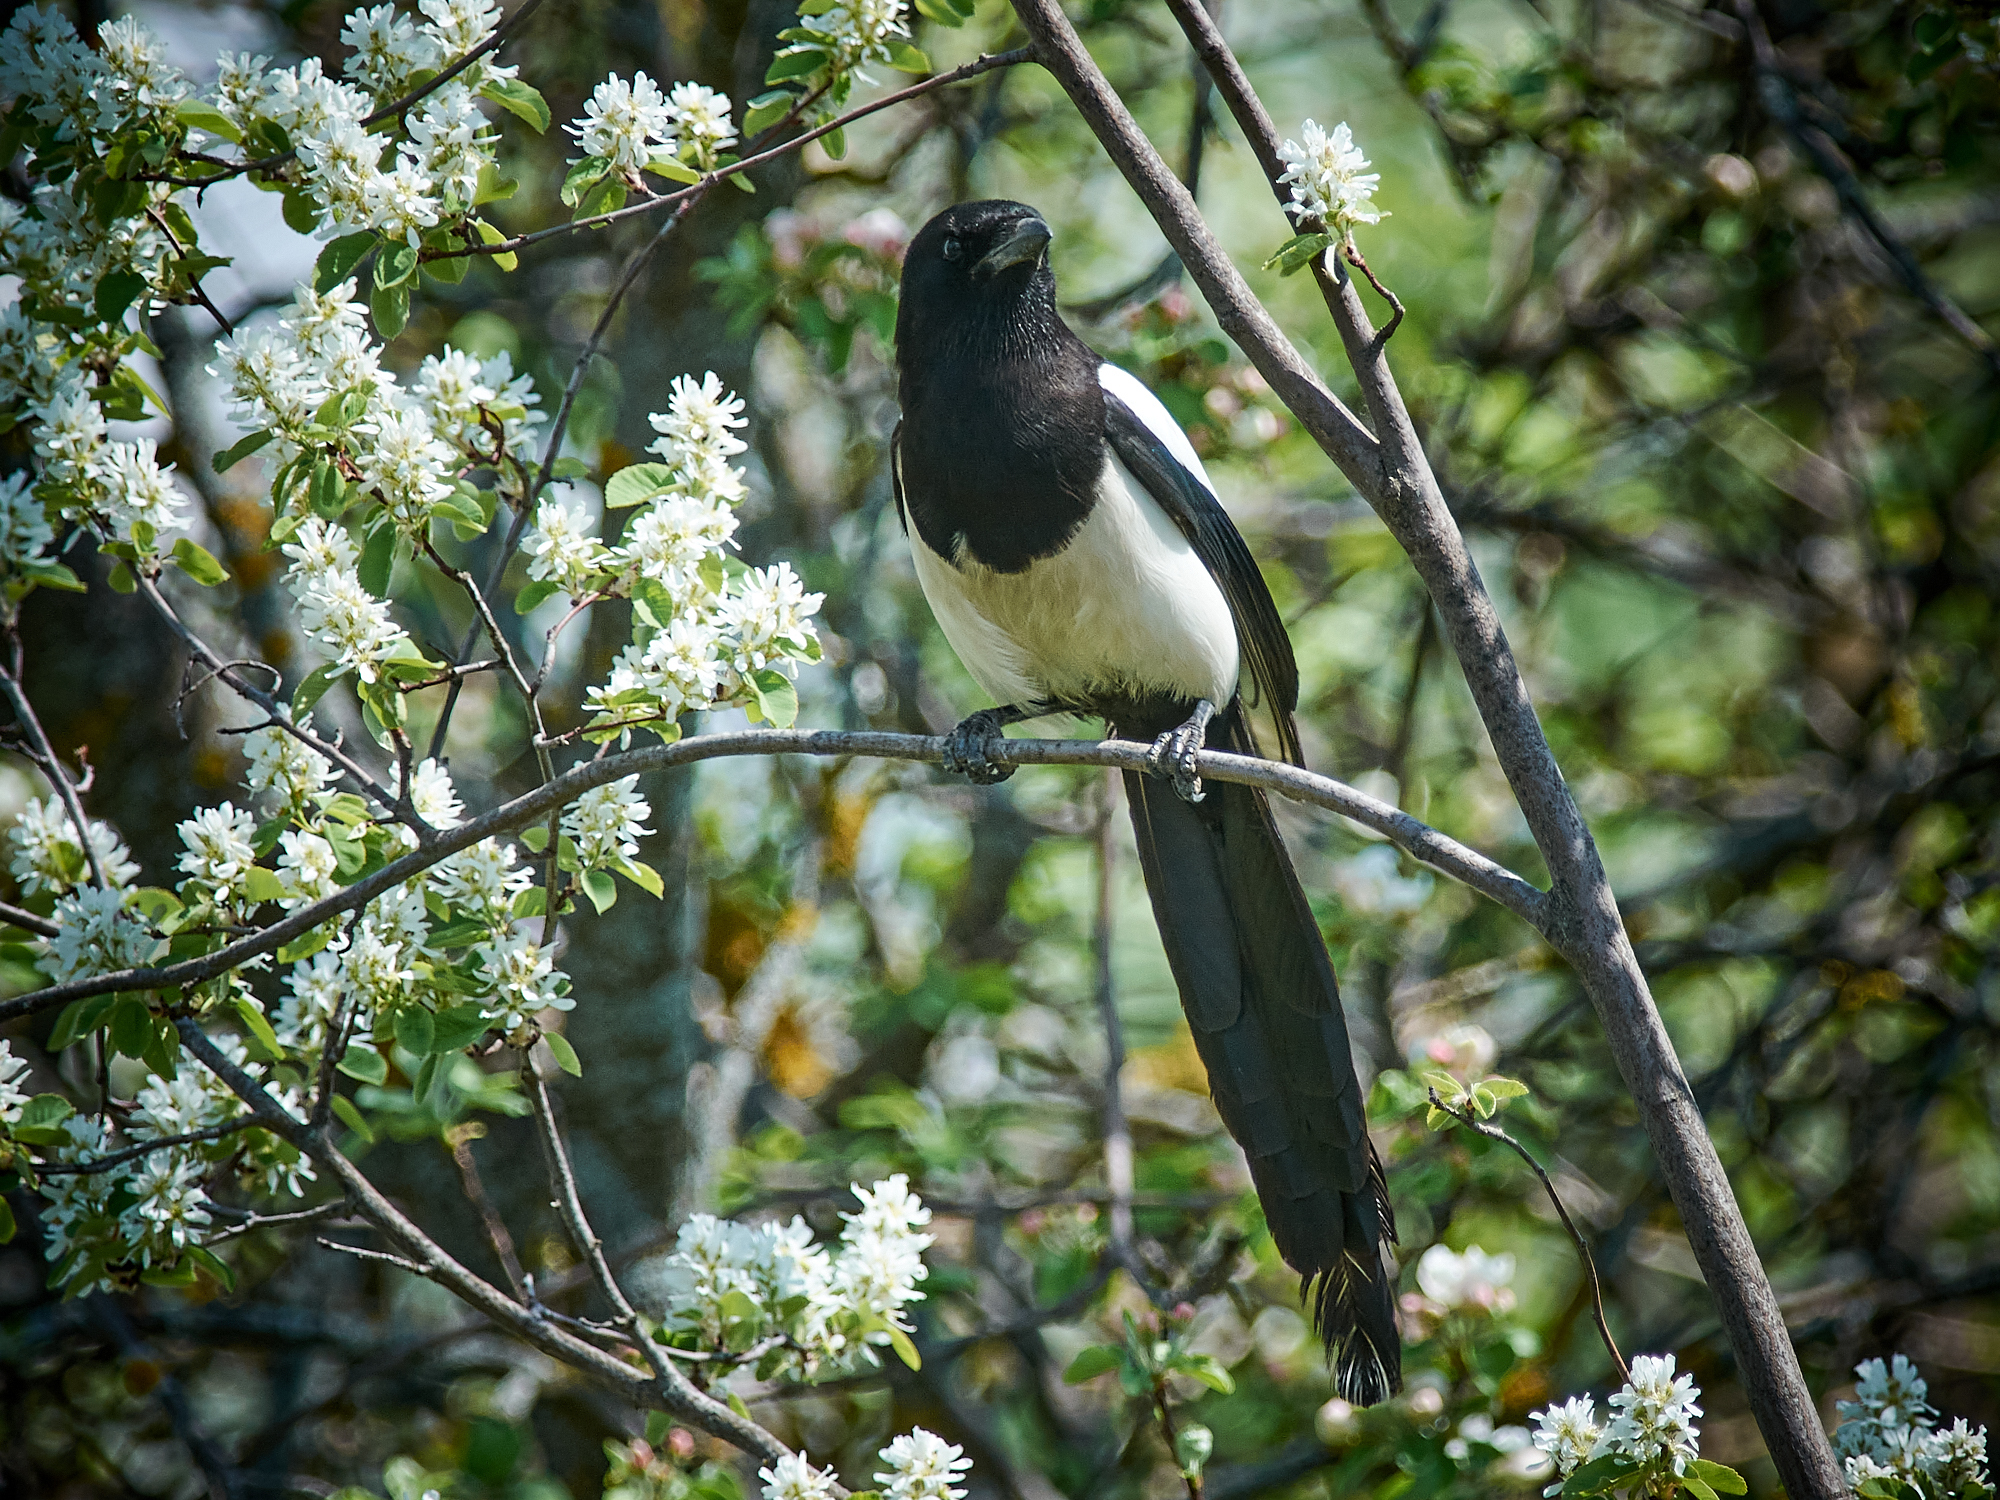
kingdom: Animalia
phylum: Chordata
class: Aves
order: Passeriformes
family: Corvidae
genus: Pica
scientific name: Pica pica
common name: Eurasian magpie
